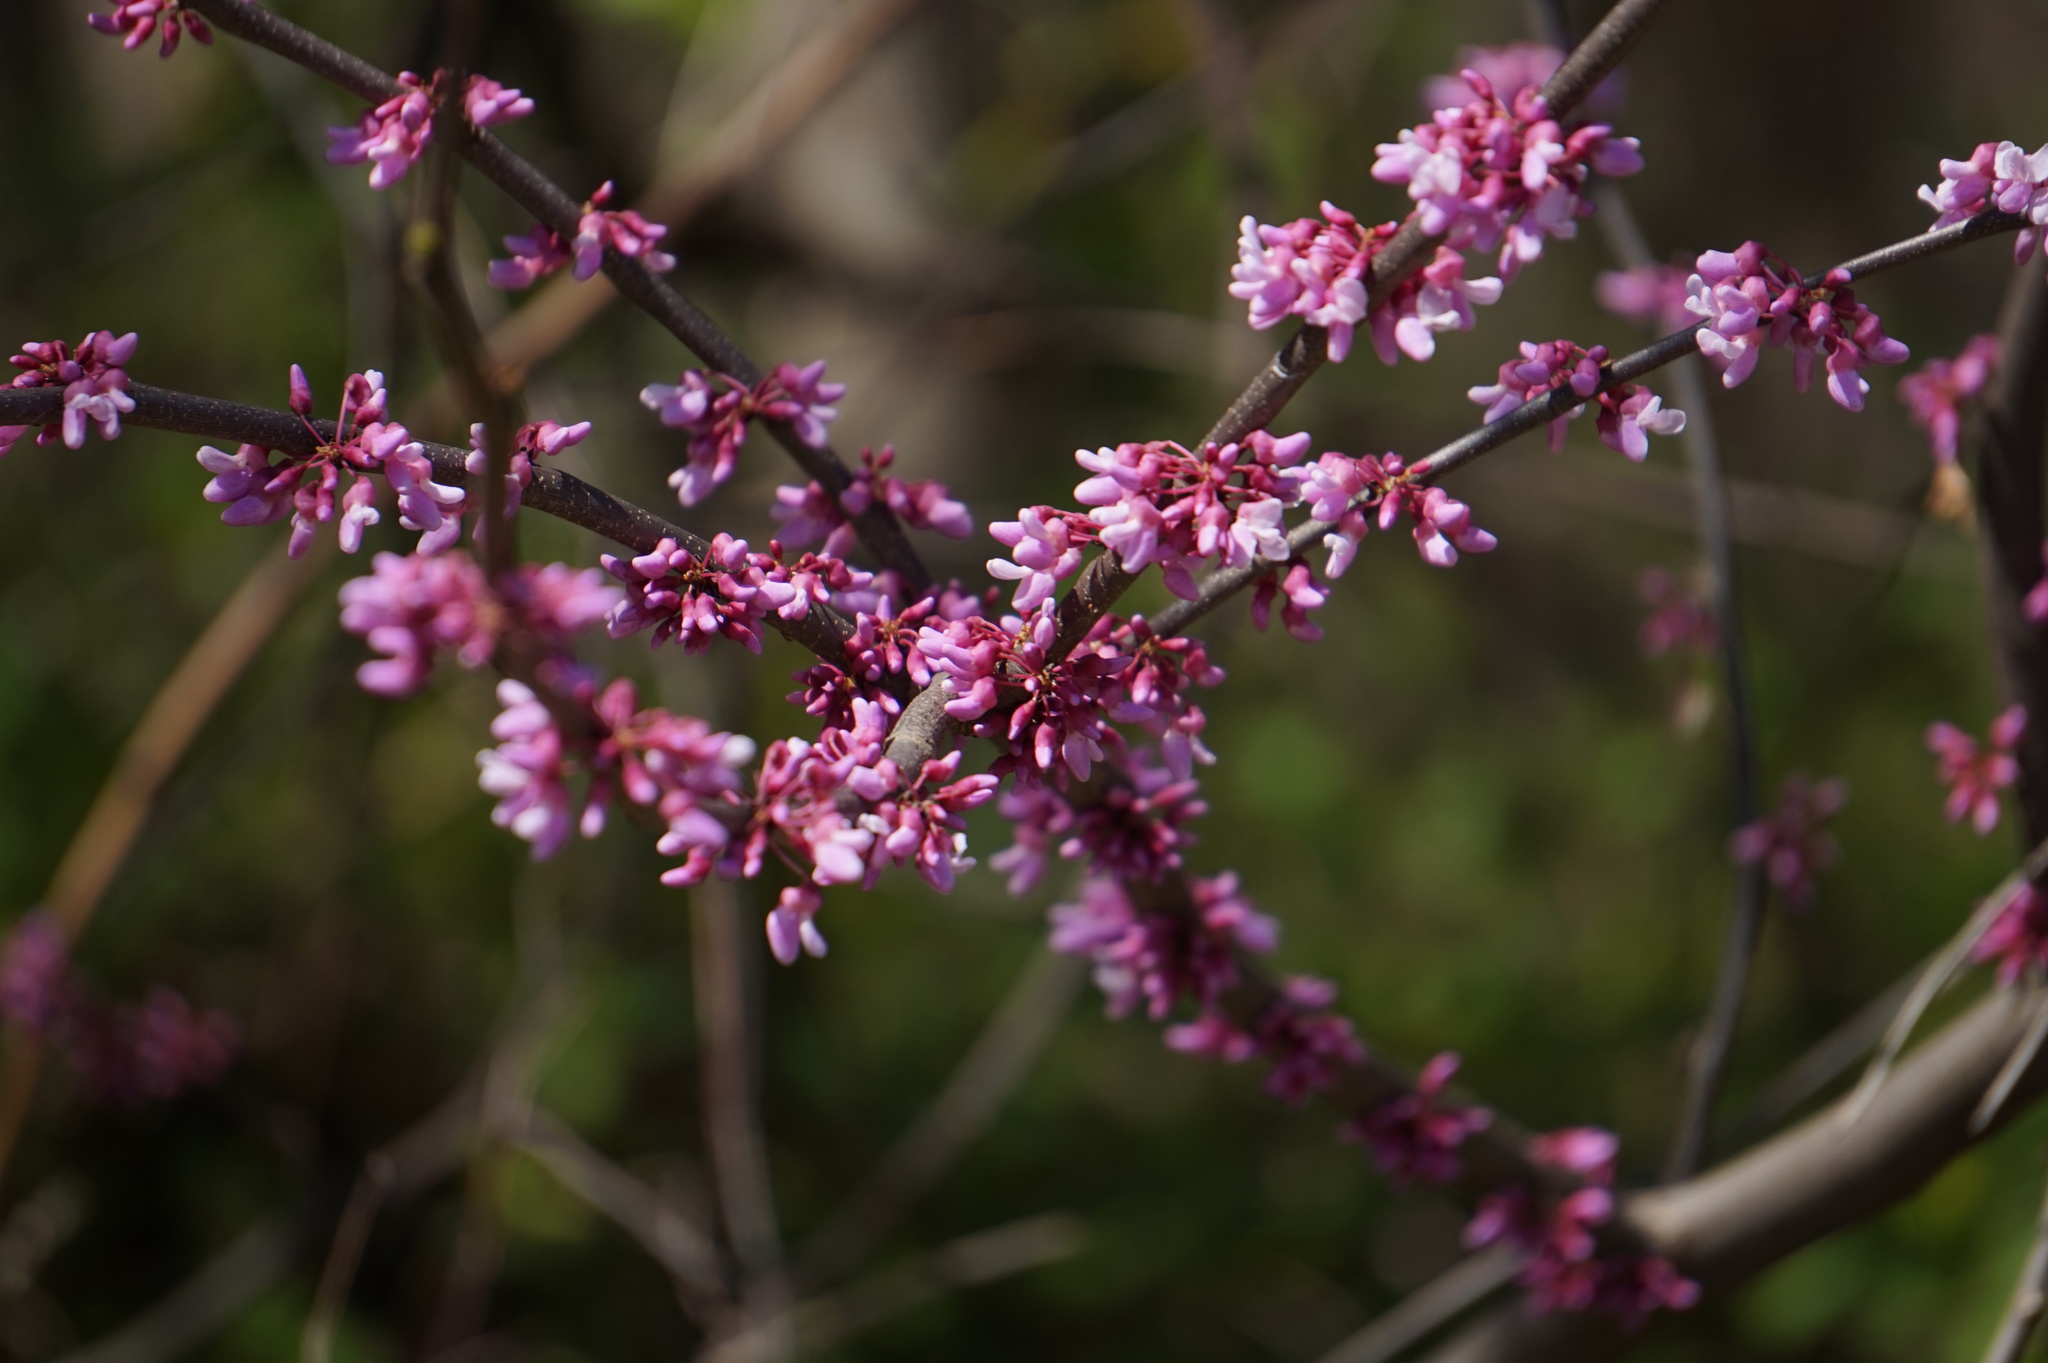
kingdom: Plantae
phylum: Tracheophyta
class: Magnoliopsida
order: Fabales
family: Fabaceae
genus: Cercis
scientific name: Cercis canadensis
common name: Eastern redbud
